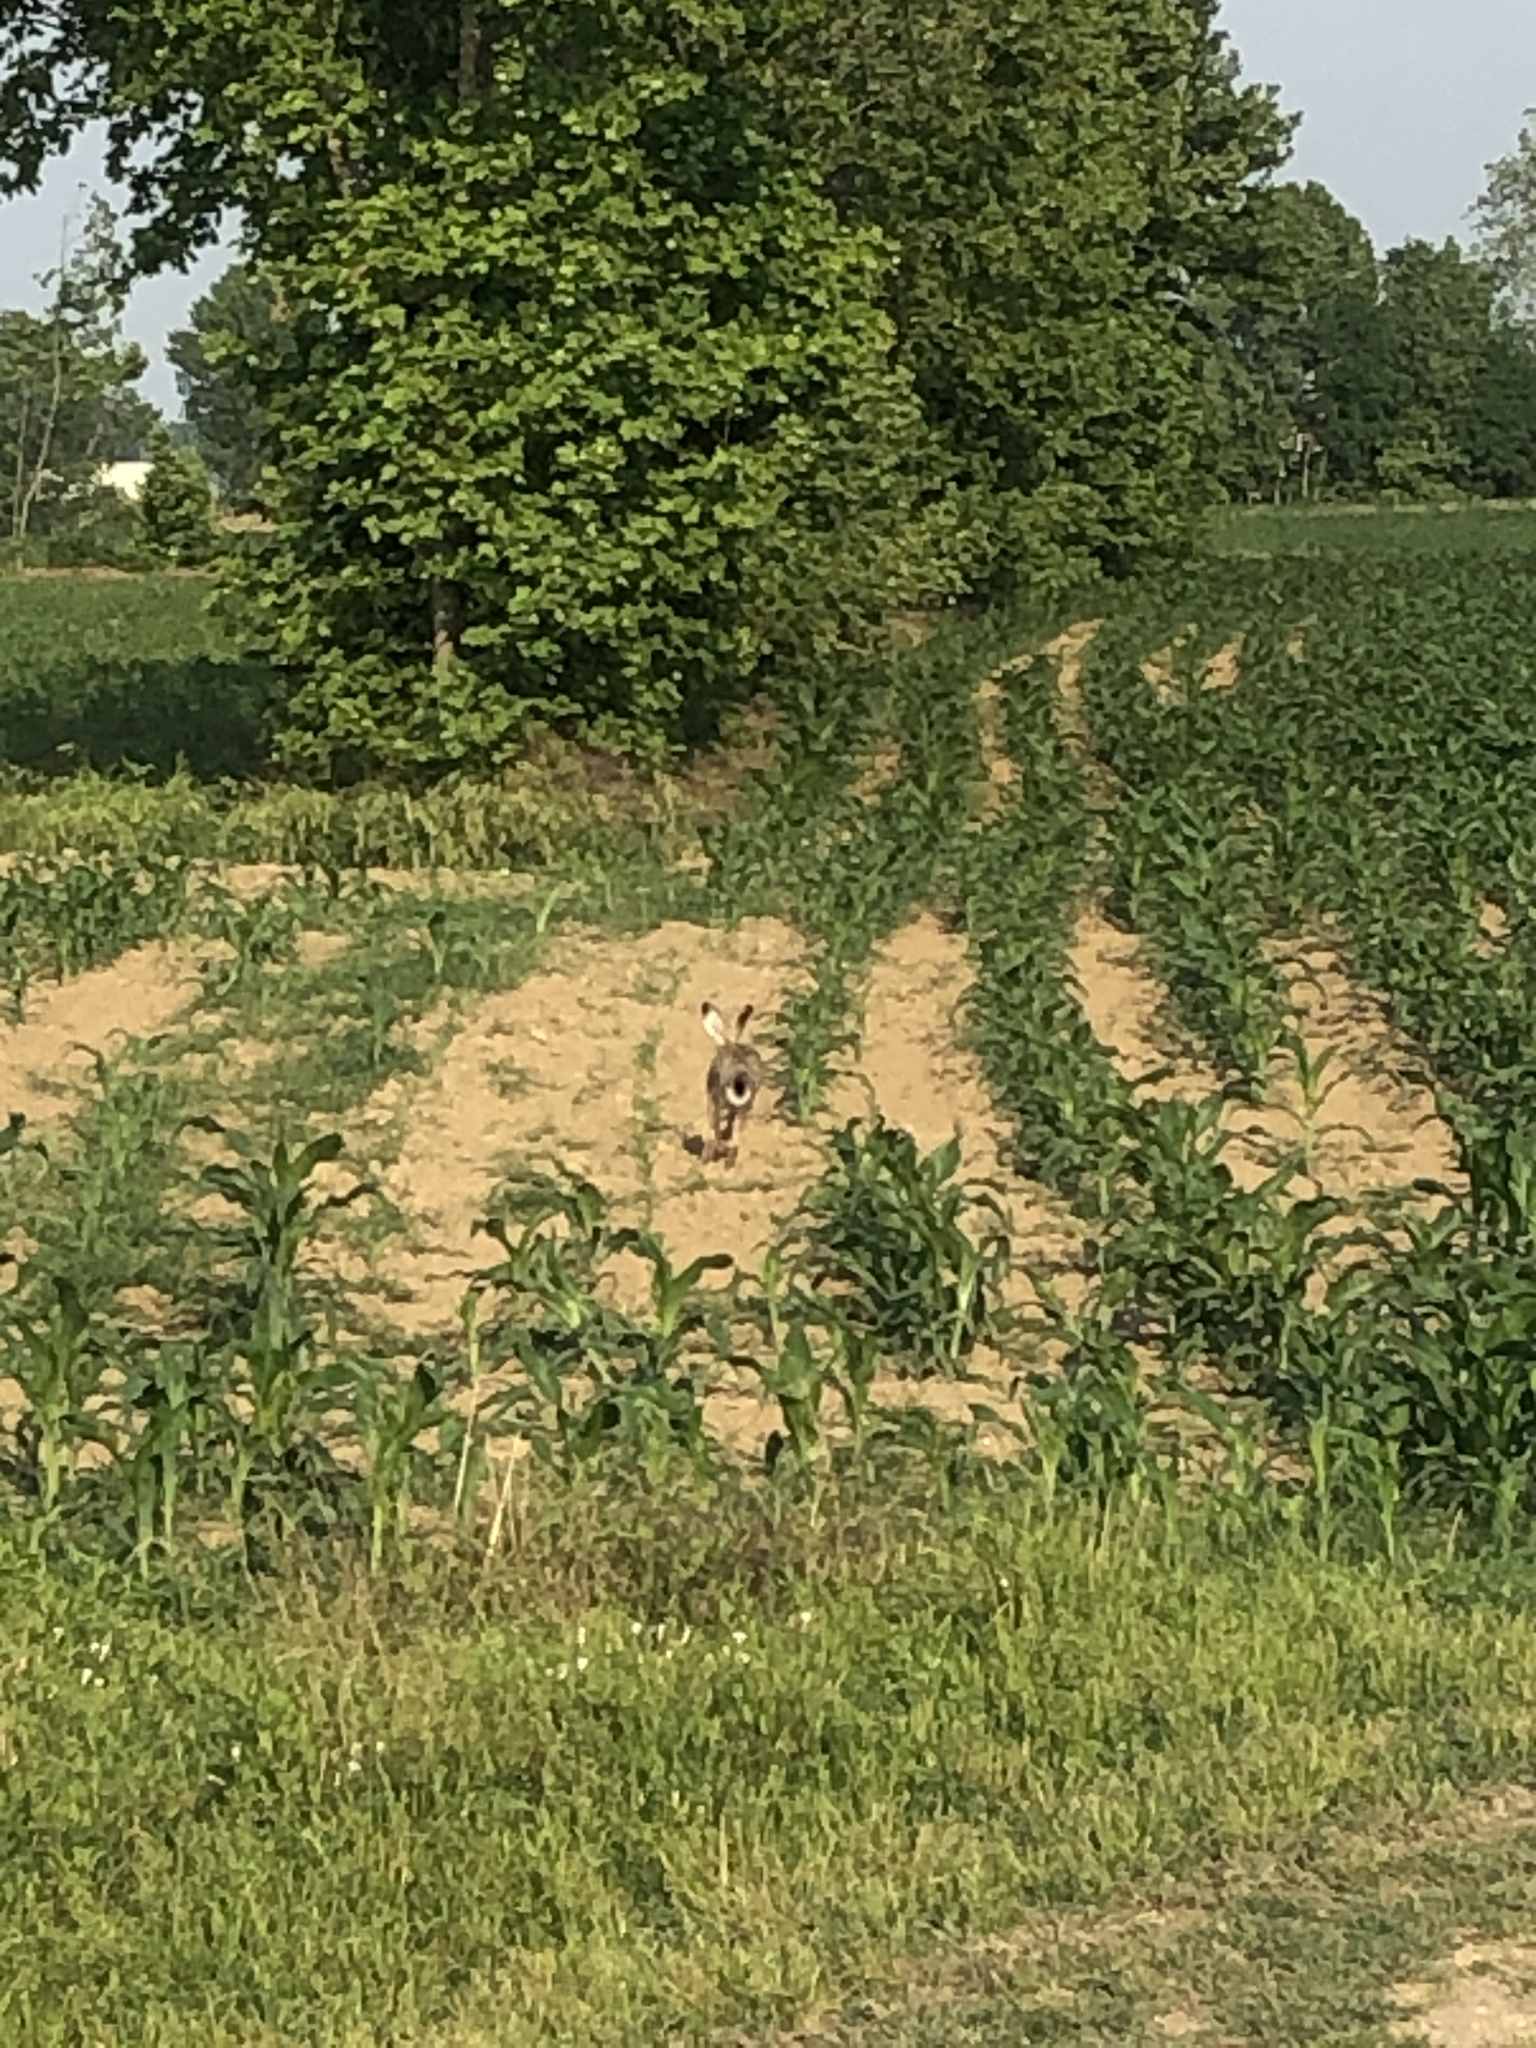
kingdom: Animalia
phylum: Chordata
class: Mammalia
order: Lagomorpha
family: Leporidae
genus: Lepus
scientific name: Lepus europaeus
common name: European hare
